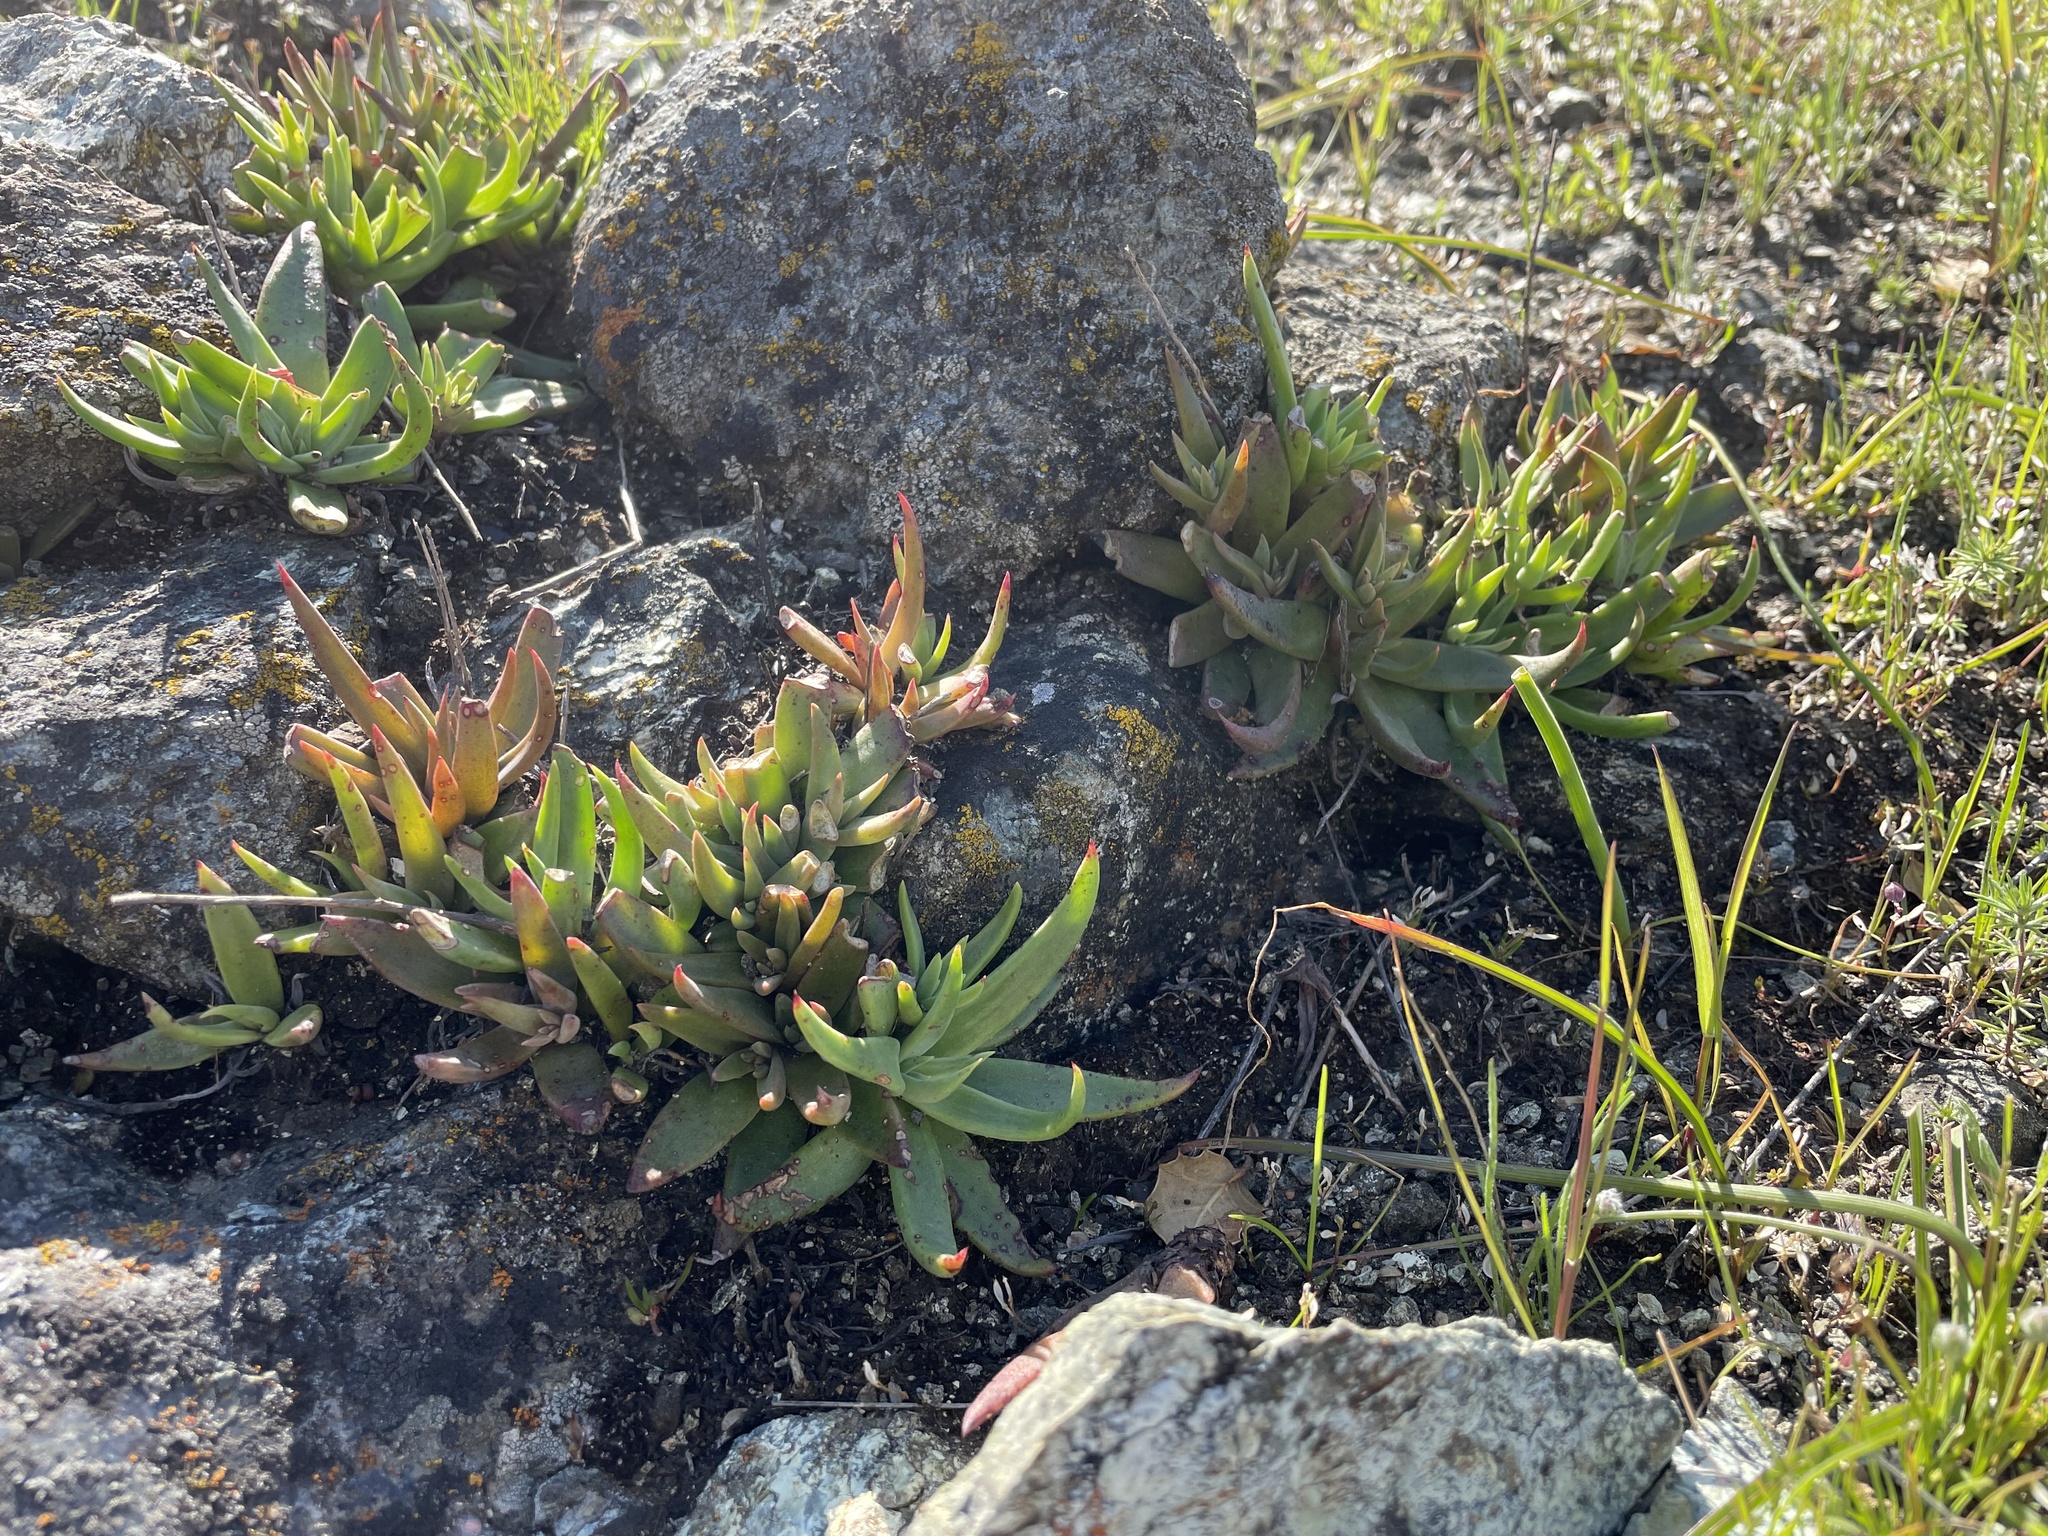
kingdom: Plantae
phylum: Tracheophyta
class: Magnoliopsida
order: Saxifragales
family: Crassulaceae
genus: Dudleya
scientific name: Dudleya abramsii
